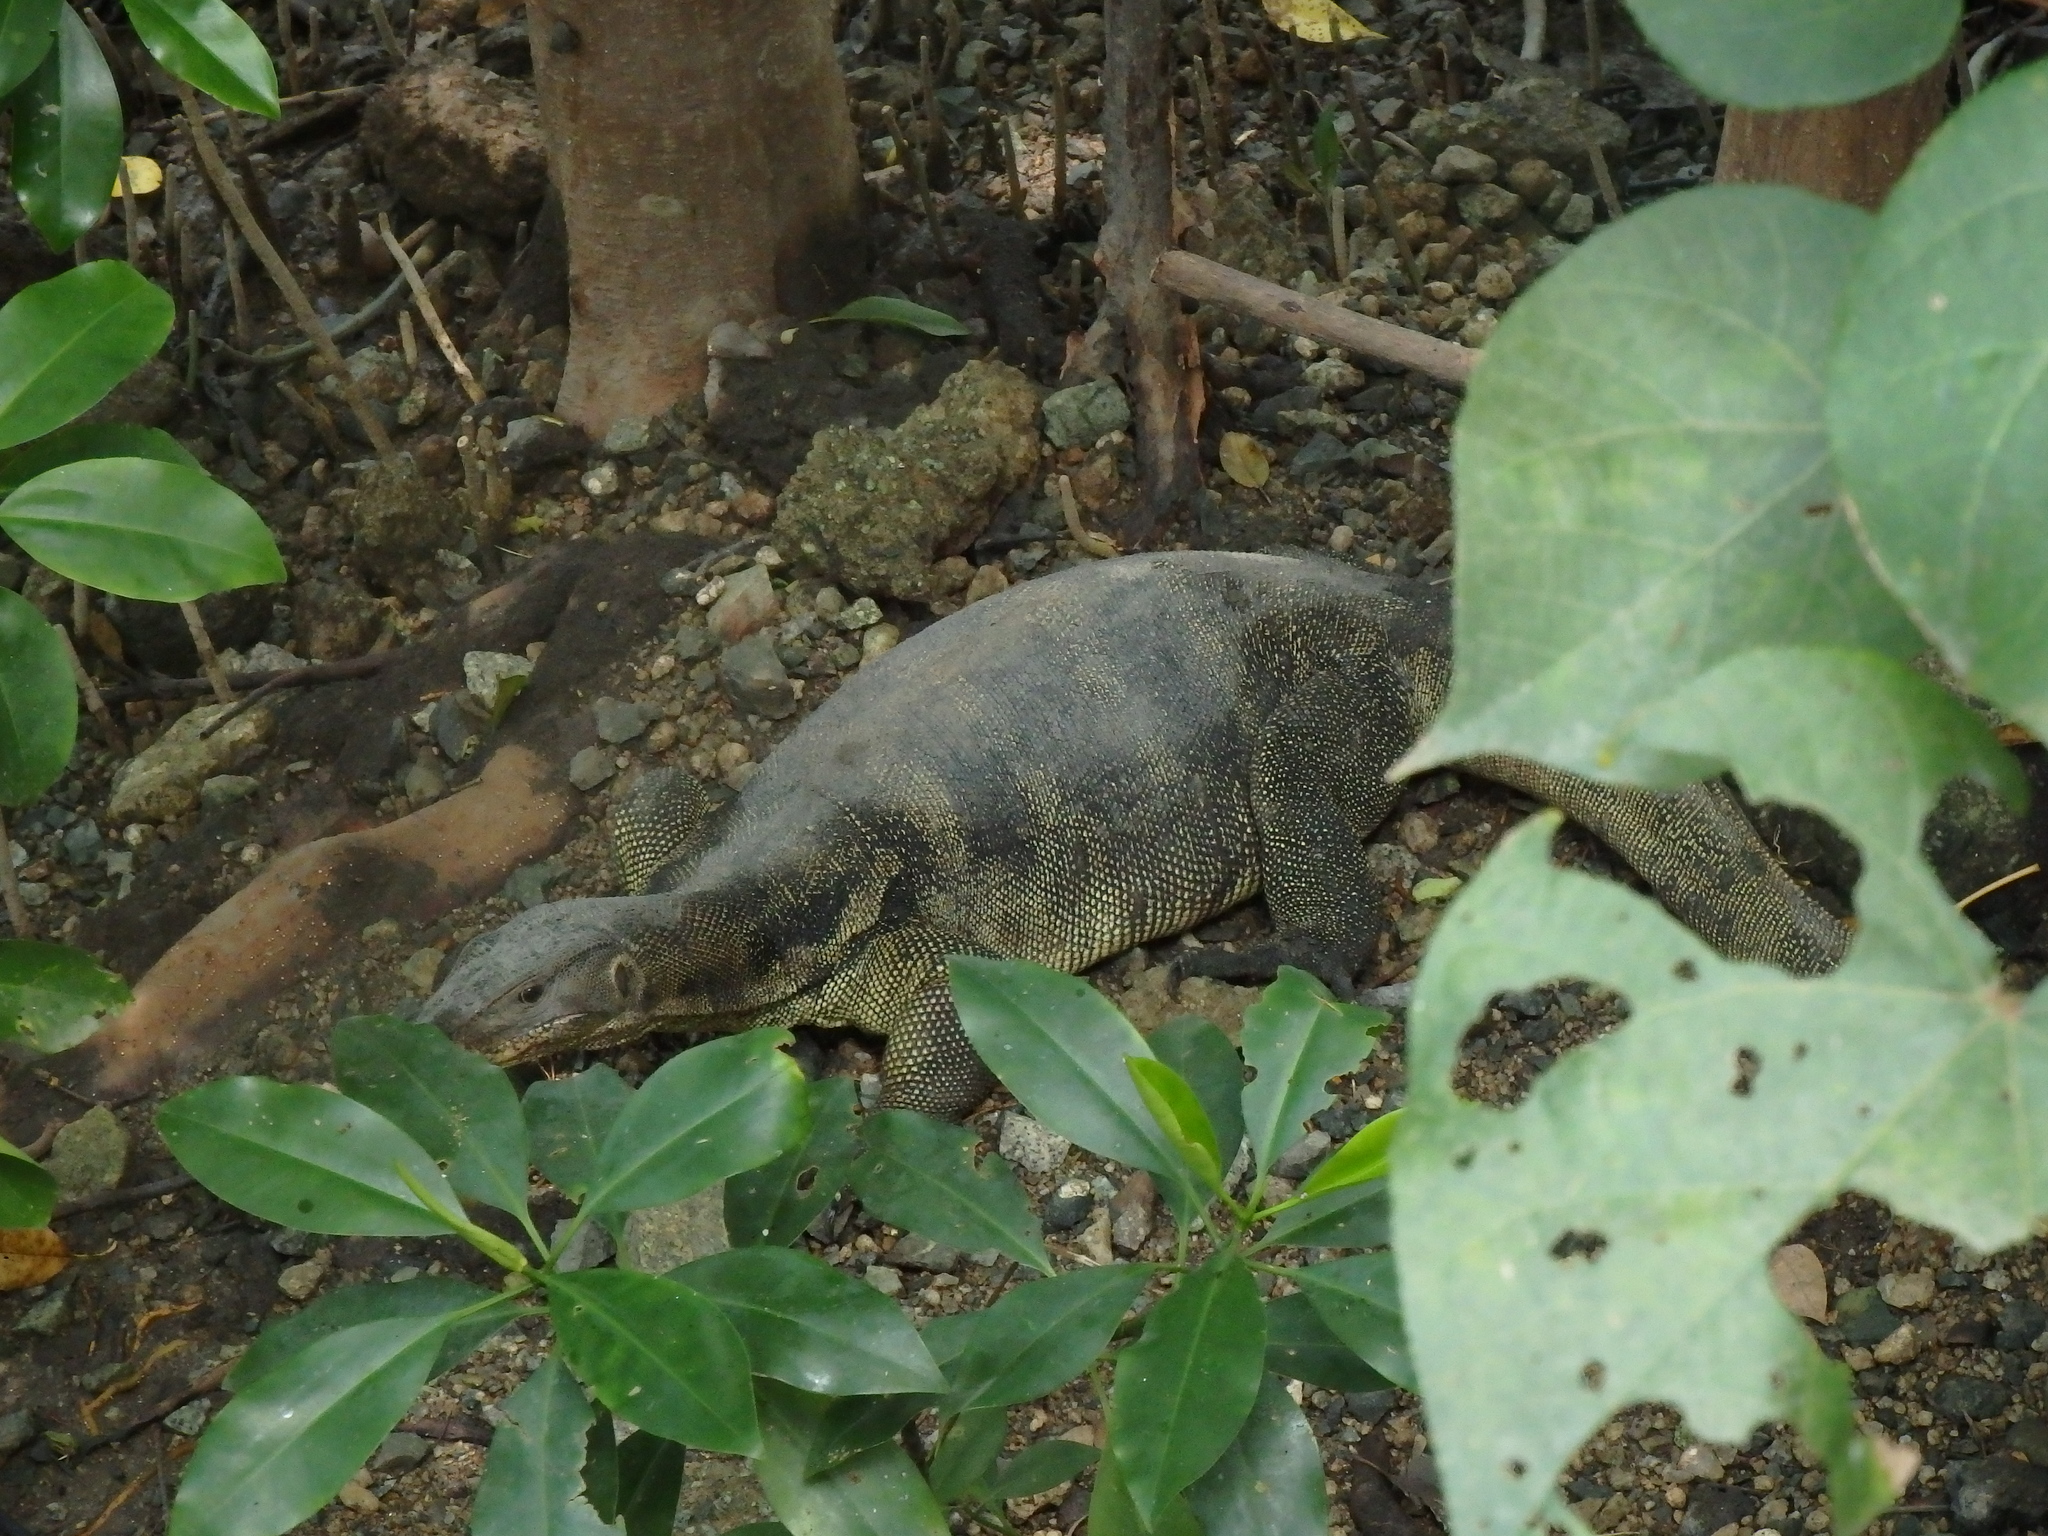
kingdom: Animalia
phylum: Chordata
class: Squamata
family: Varanidae
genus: Varanus
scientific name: Varanus salvator
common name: Common water monitor
